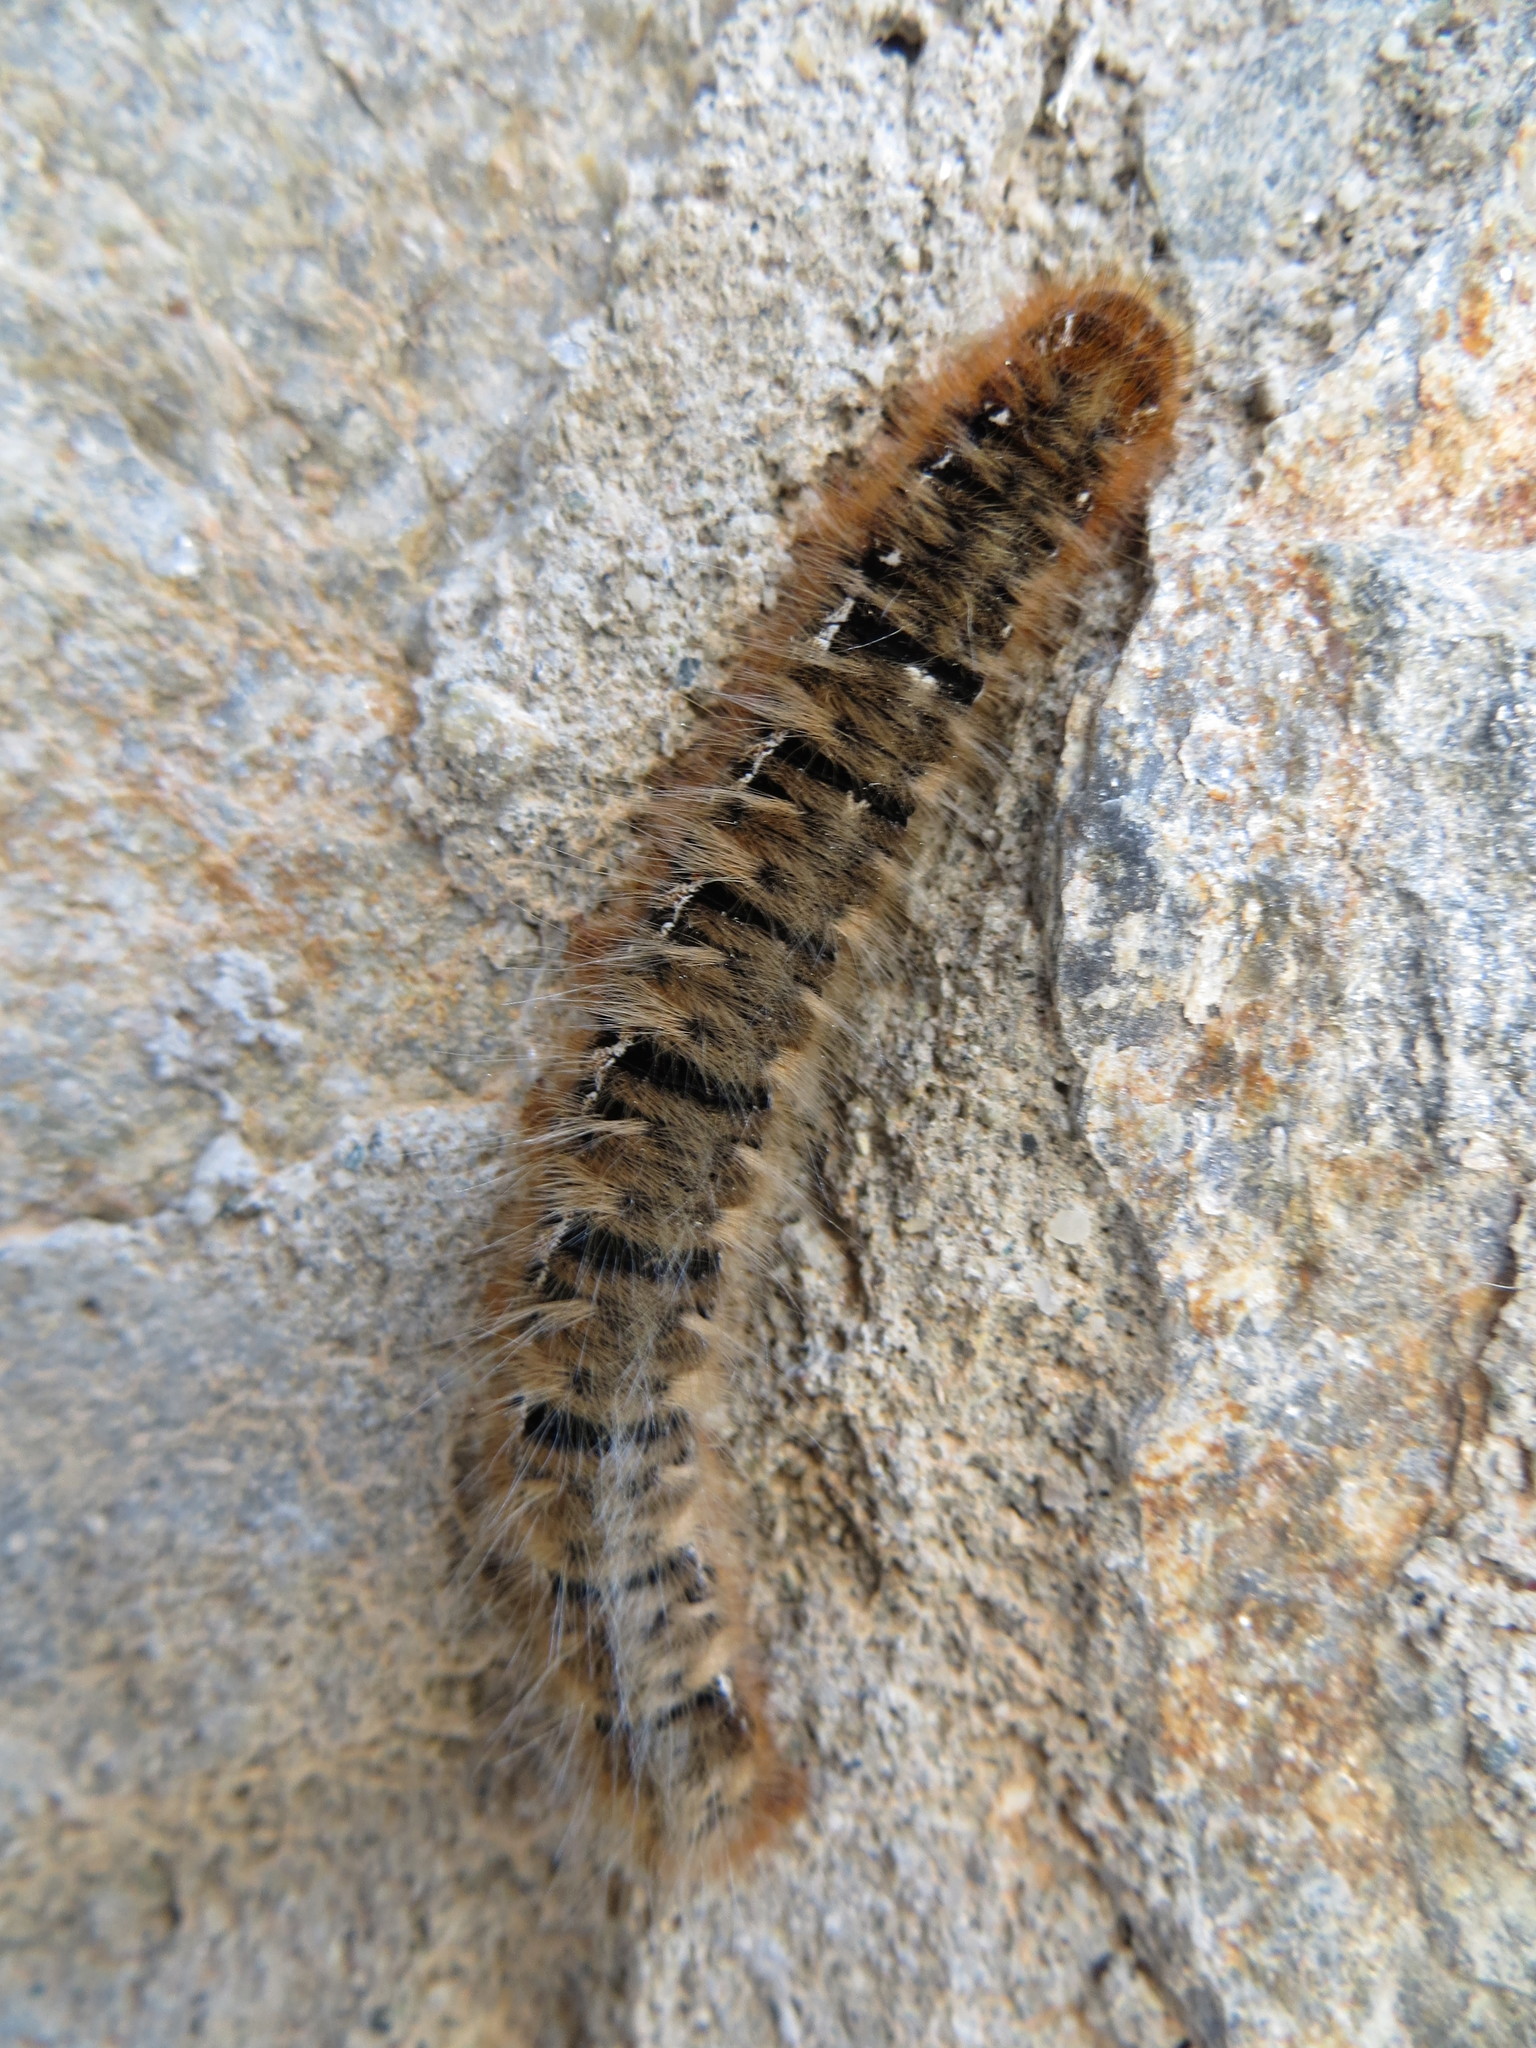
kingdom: Animalia
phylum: Arthropoda
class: Insecta
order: Lepidoptera
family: Lasiocampidae
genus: Lasiocampa
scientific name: Lasiocampa quercus
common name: Oak eggar
